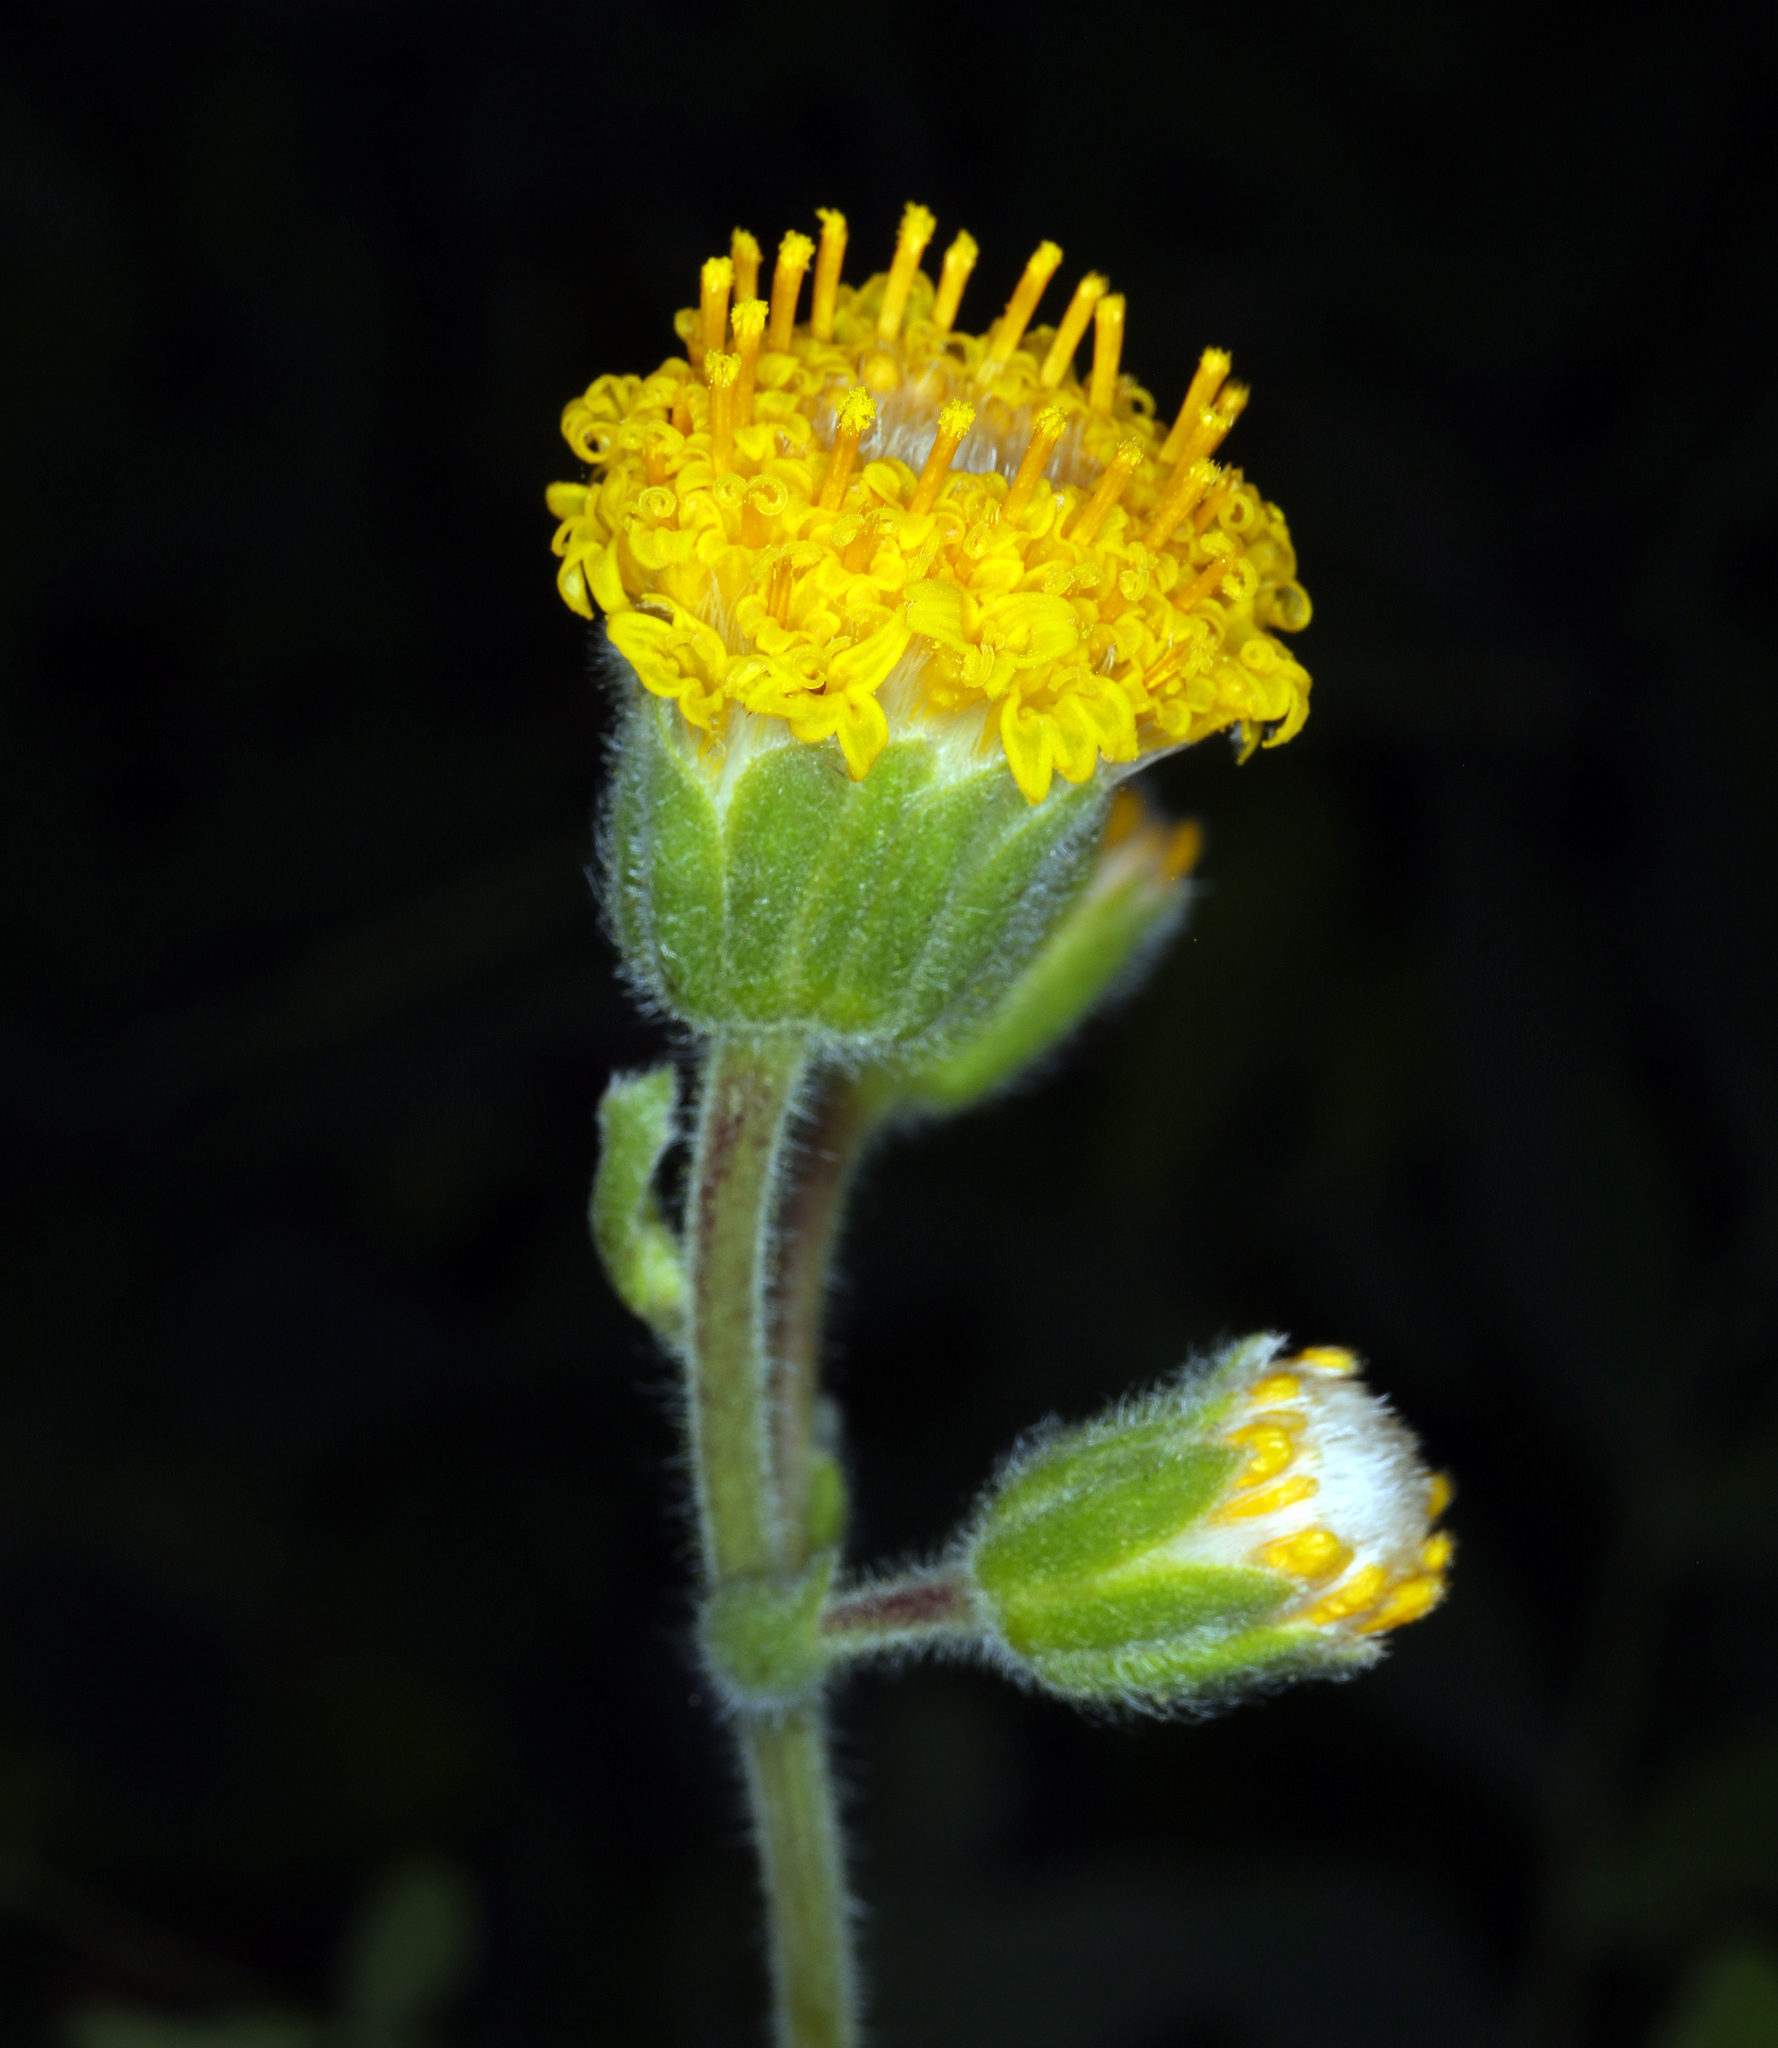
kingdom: Plantae
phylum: Tracheophyta
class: Magnoliopsida
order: Asterales
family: Asteraceae
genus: Arnica
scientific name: Arnica discoidea
